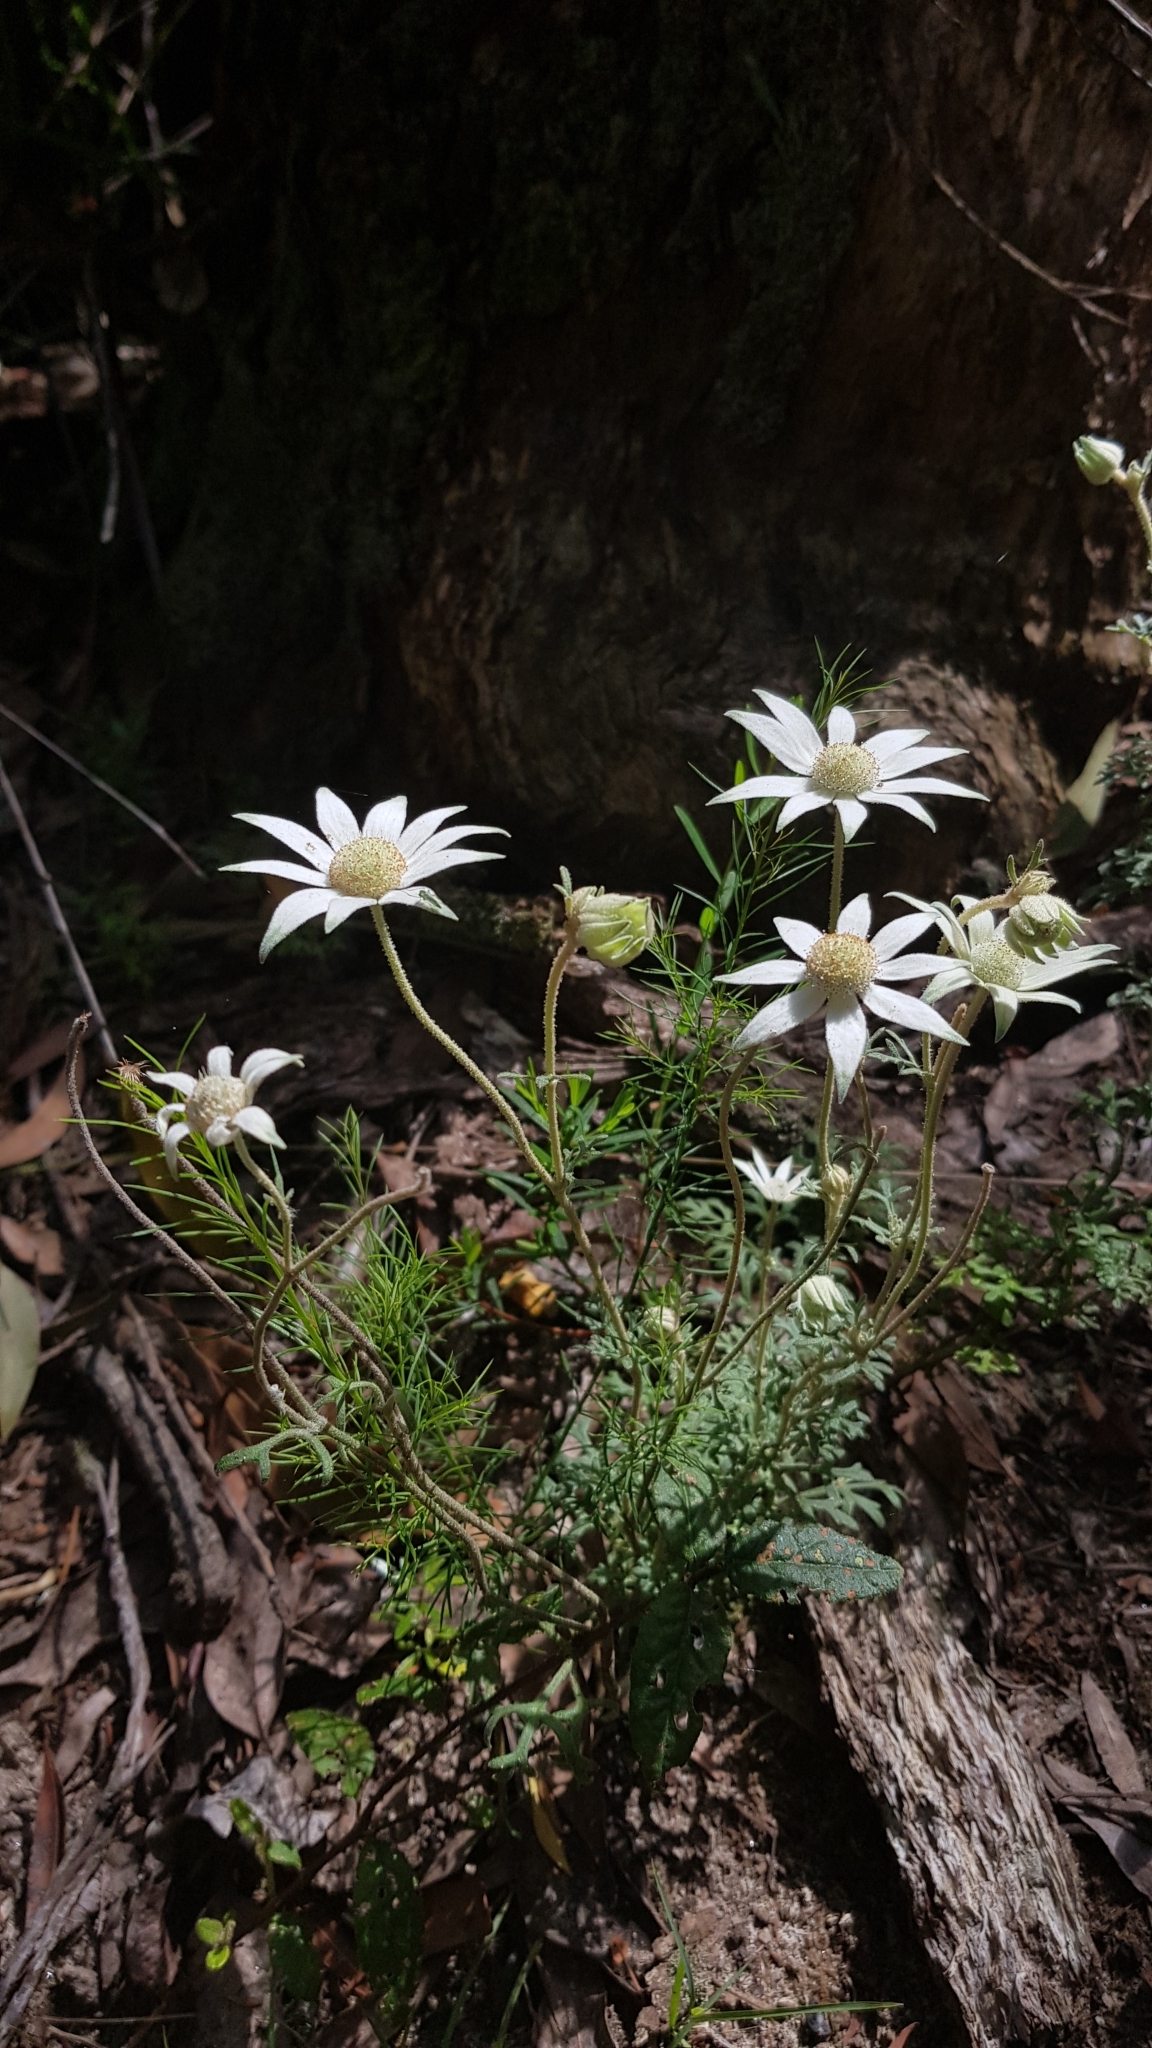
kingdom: Plantae
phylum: Tracheophyta
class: Magnoliopsida
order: Apiales
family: Apiaceae
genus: Actinotus
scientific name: Actinotus helianthi
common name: Flannel-flower
